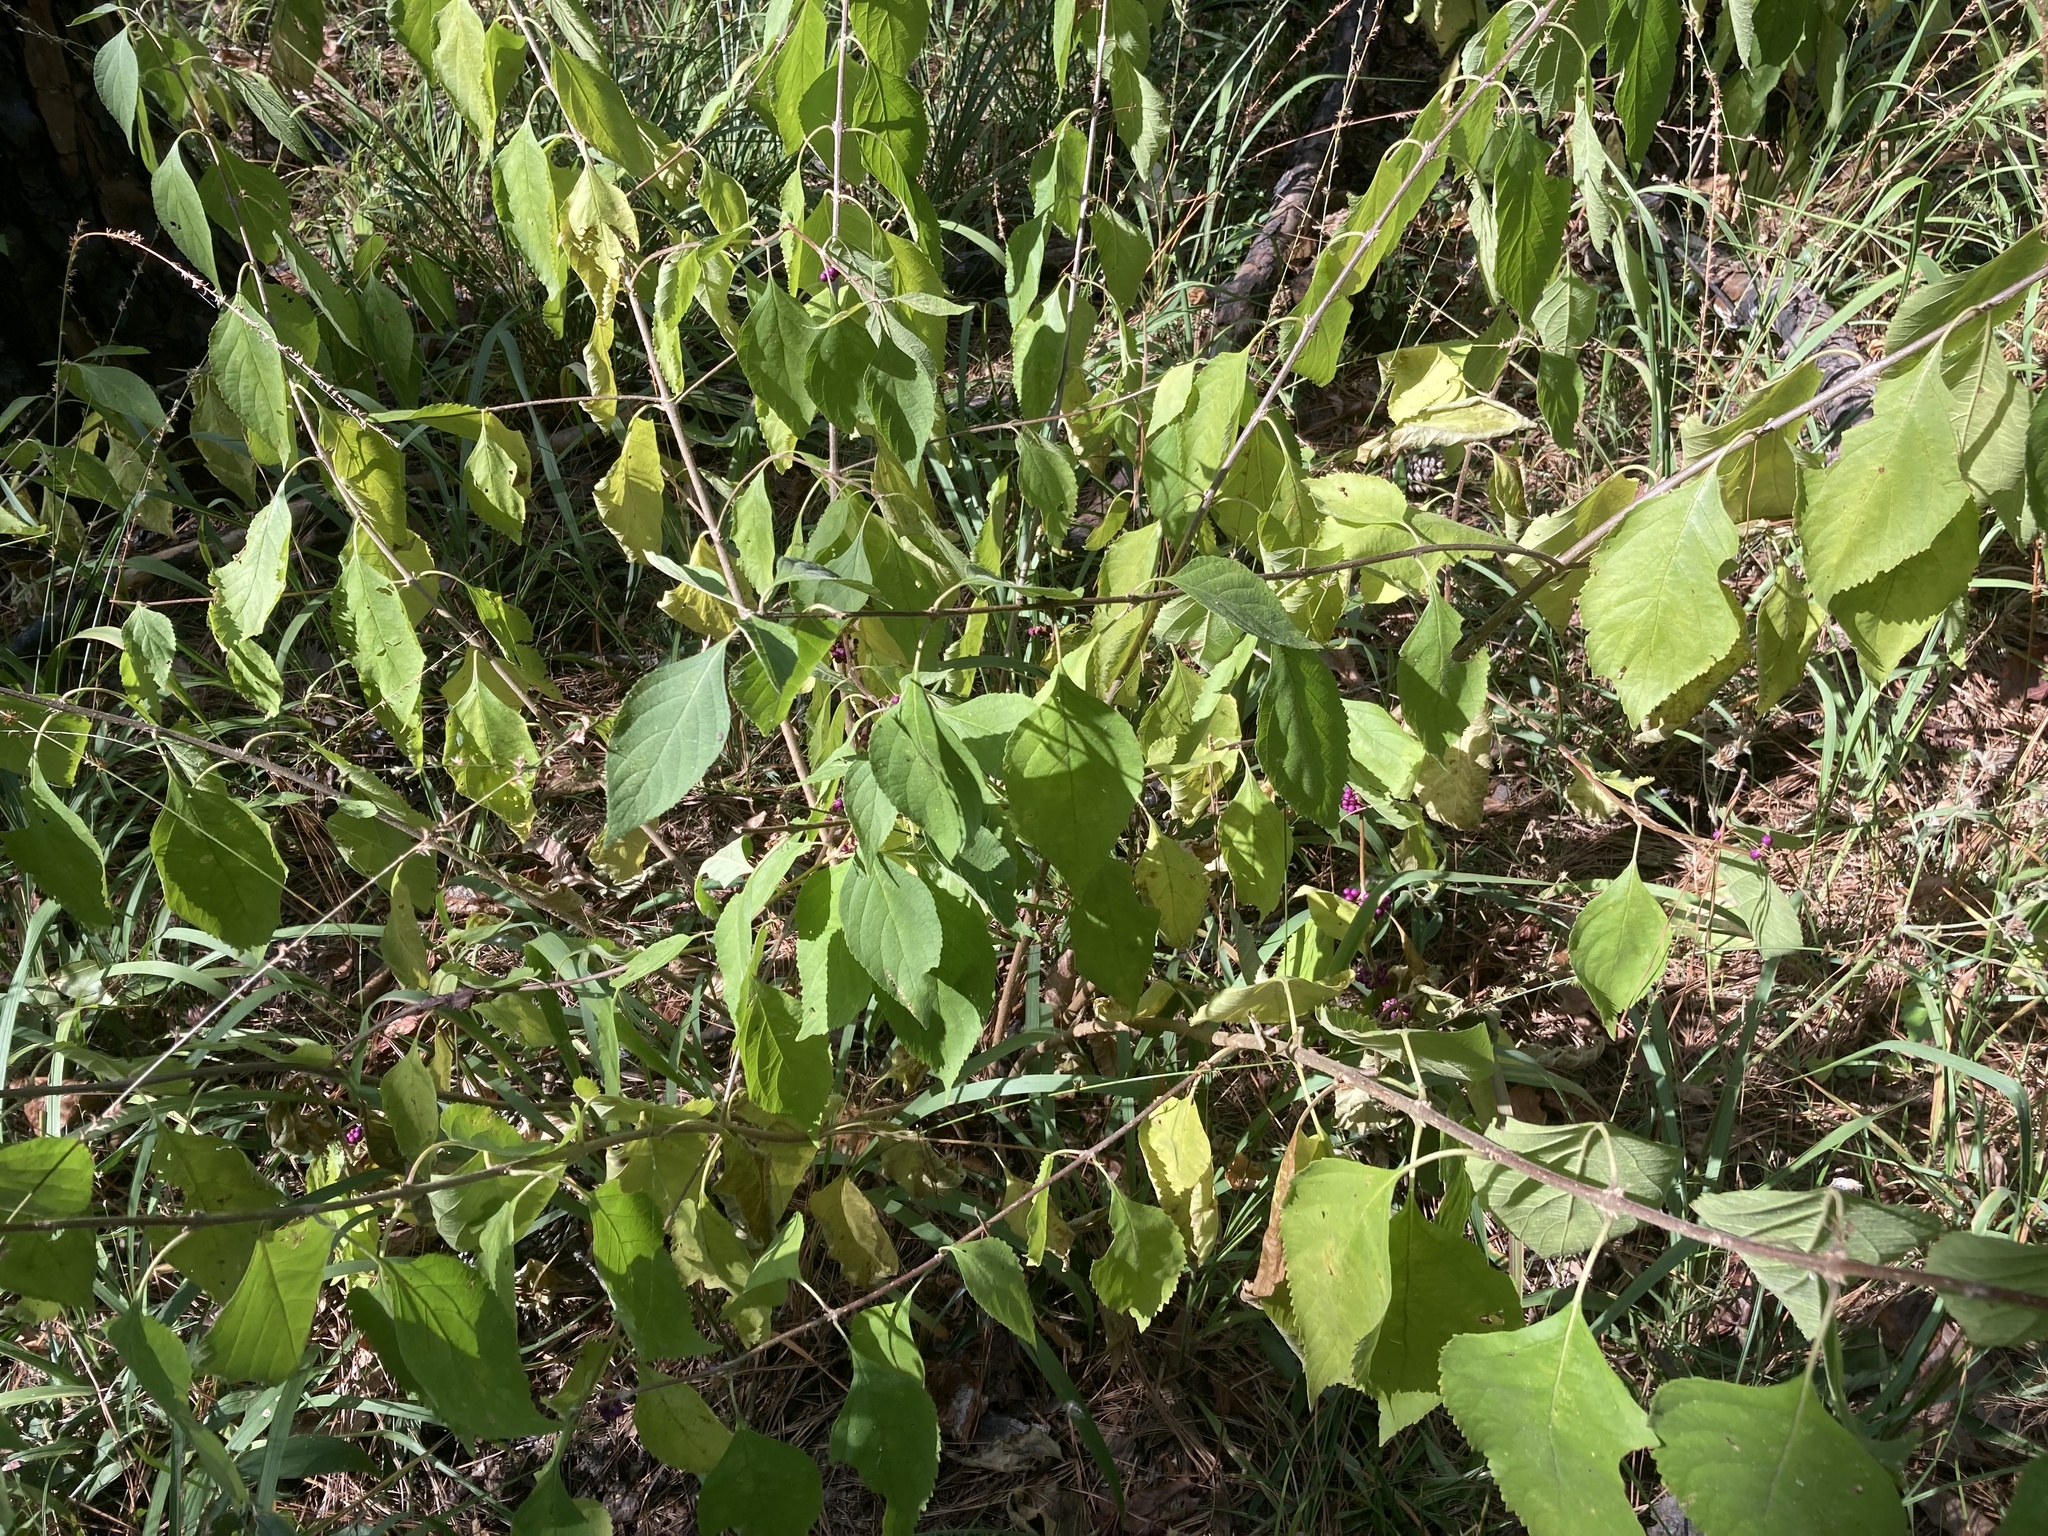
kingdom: Plantae
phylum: Tracheophyta
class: Magnoliopsida
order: Lamiales
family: Lamiaceae
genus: Callicarpa
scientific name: Callicarpa americana
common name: American beautyberry
